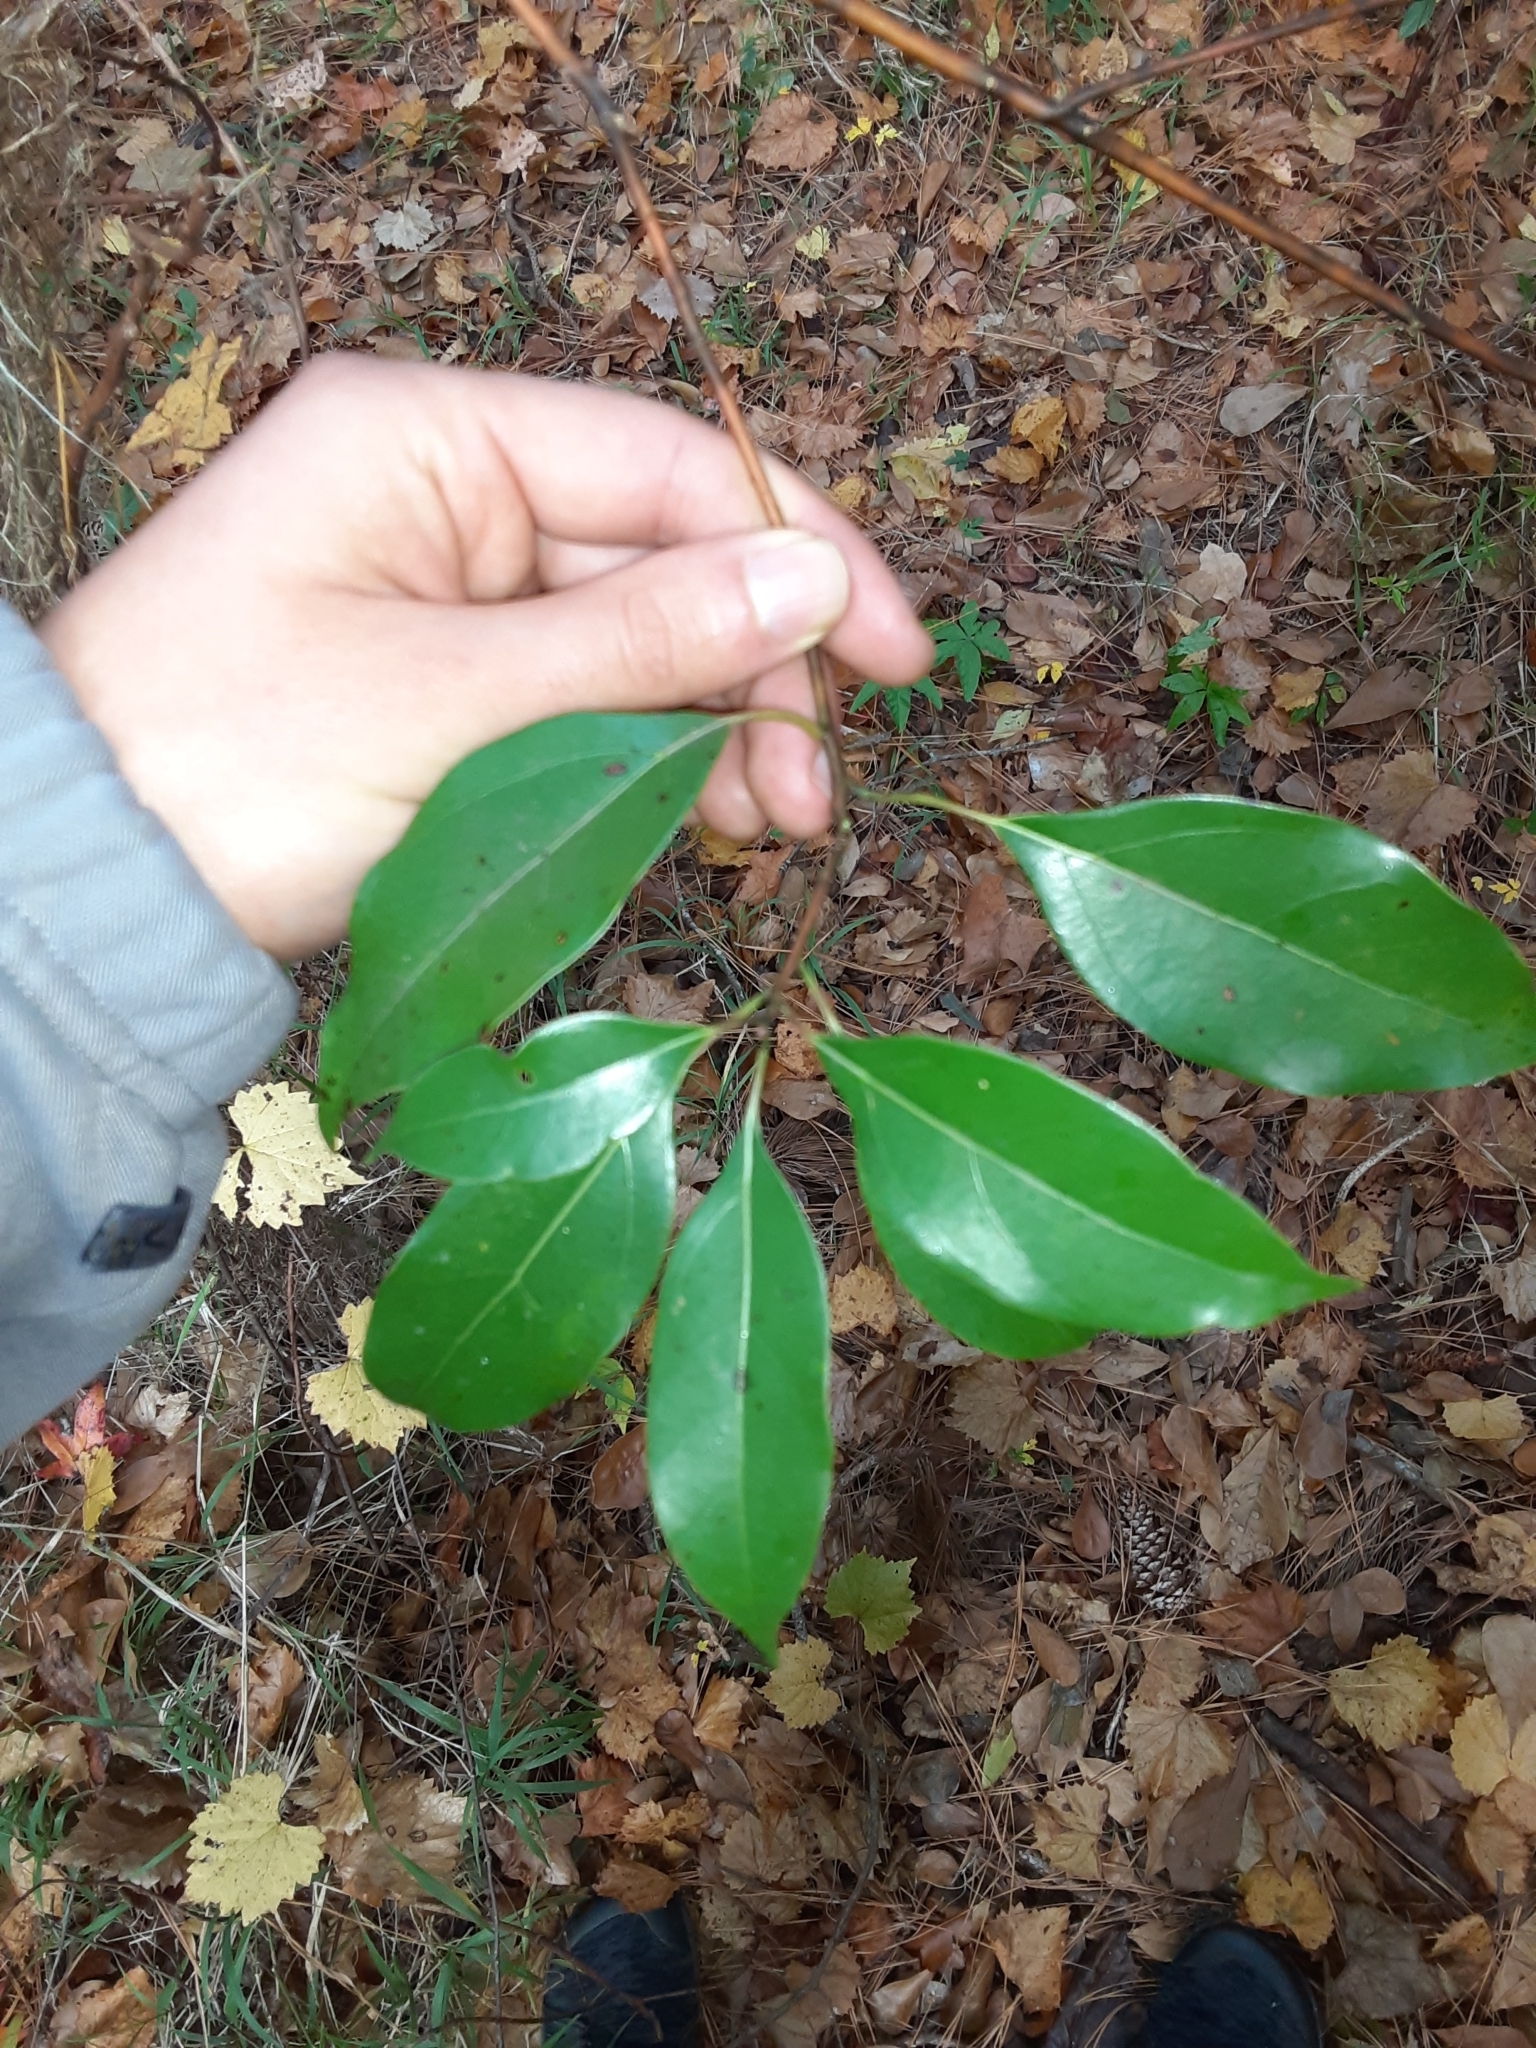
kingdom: Plantae
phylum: Tracheophyta
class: Magnoliopsida
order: Laurales
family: Lauraceae
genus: Cinnamomum
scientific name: Cinnamomum camphora
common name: Camphortree
